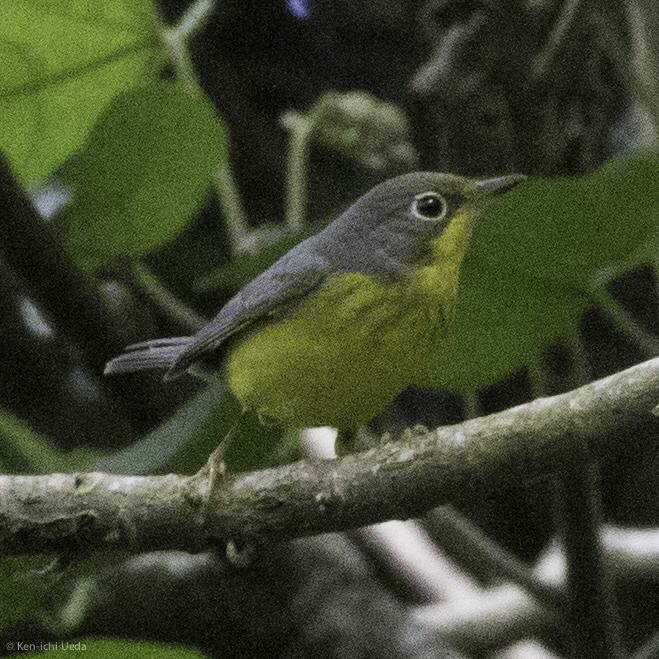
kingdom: Animalia
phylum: Chordata
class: Aves
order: Passeriformes
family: Parulidae
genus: Cardellina
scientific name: Cardellina canadensis
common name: Canada warbler
